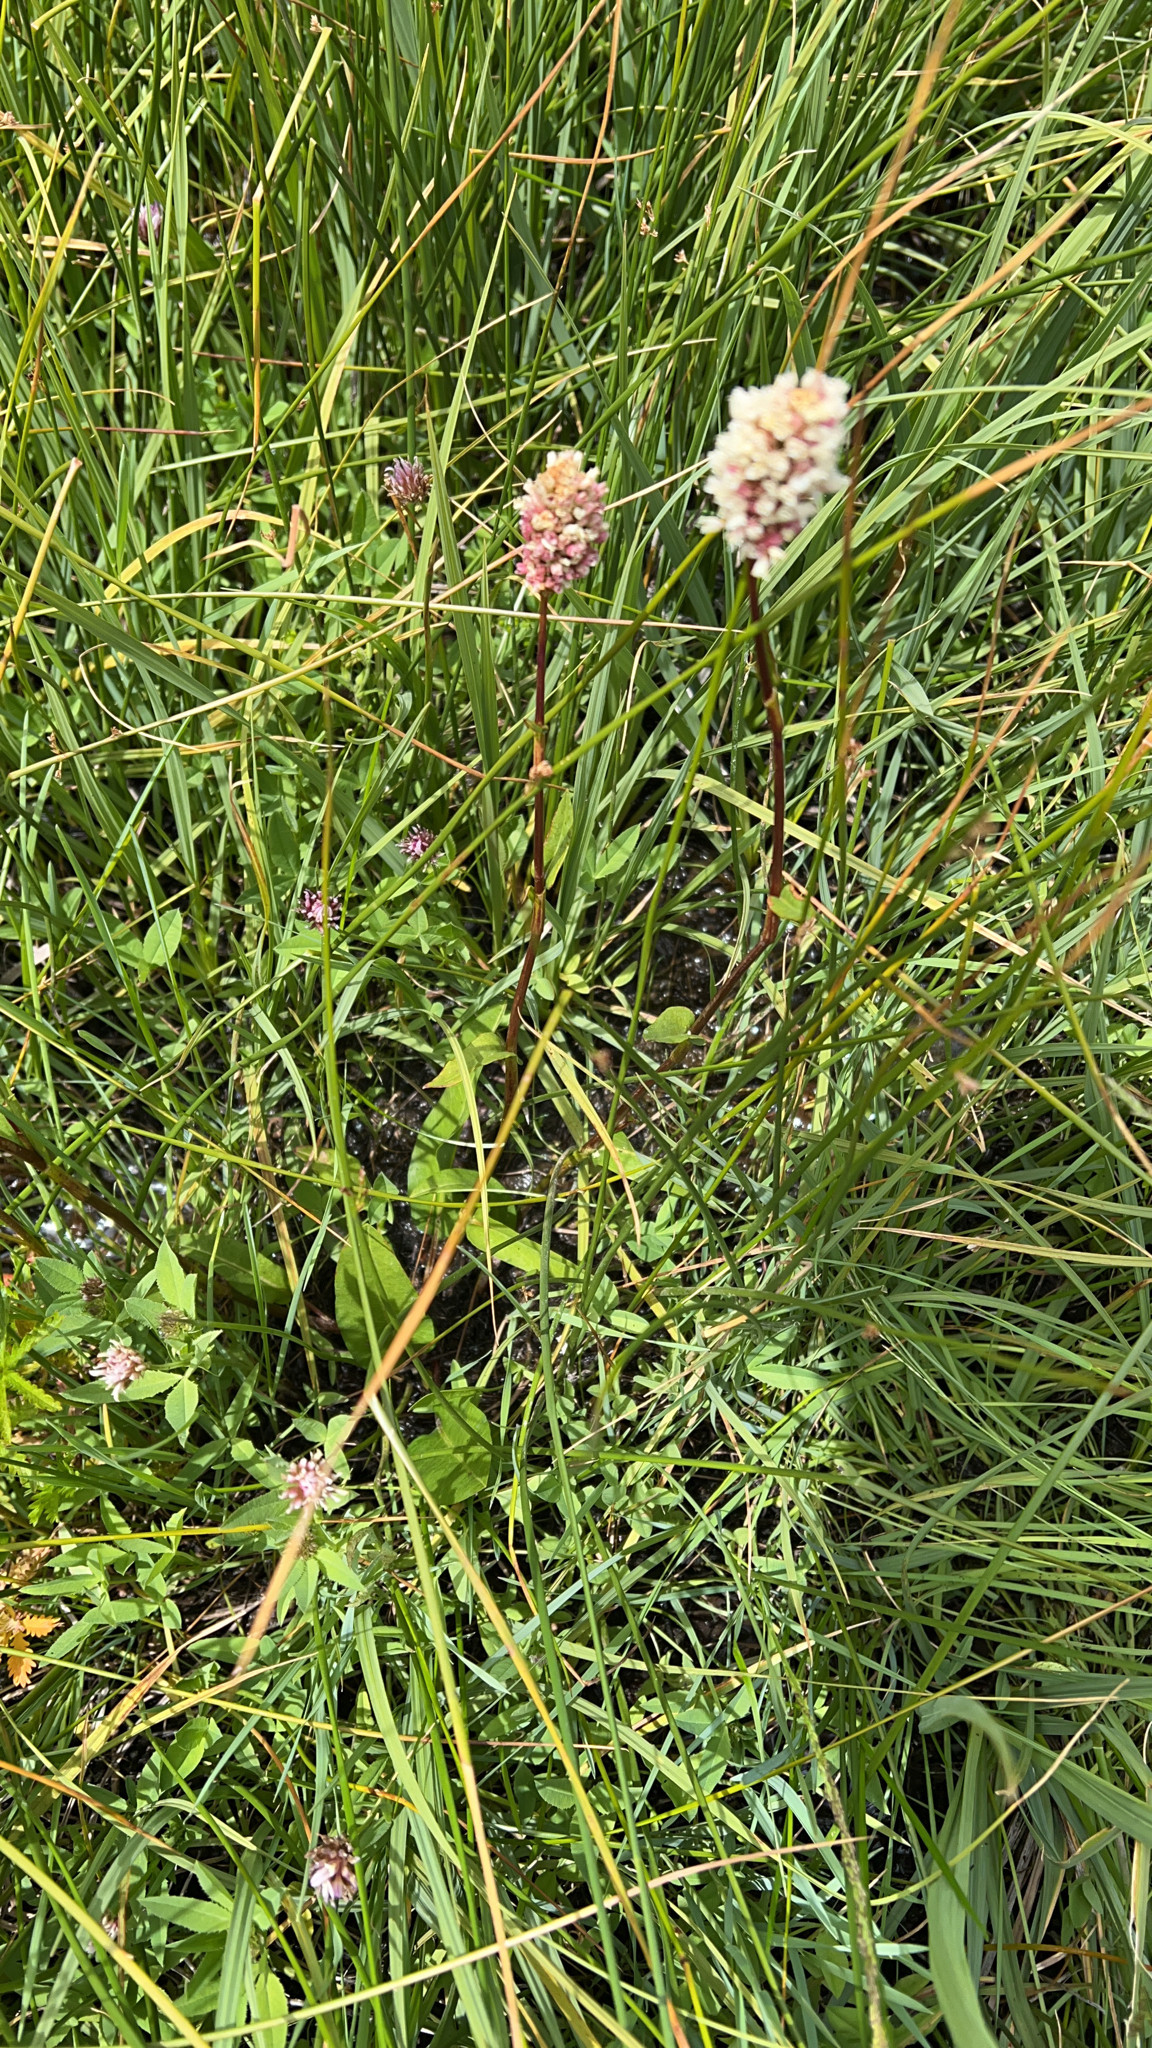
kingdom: Plantae
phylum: Tracheophyta
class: Magnoliopsida
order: Caryophyllales
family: Polygonaceae
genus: Bistorta
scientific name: Bistorta bistortoides
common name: American bistort
